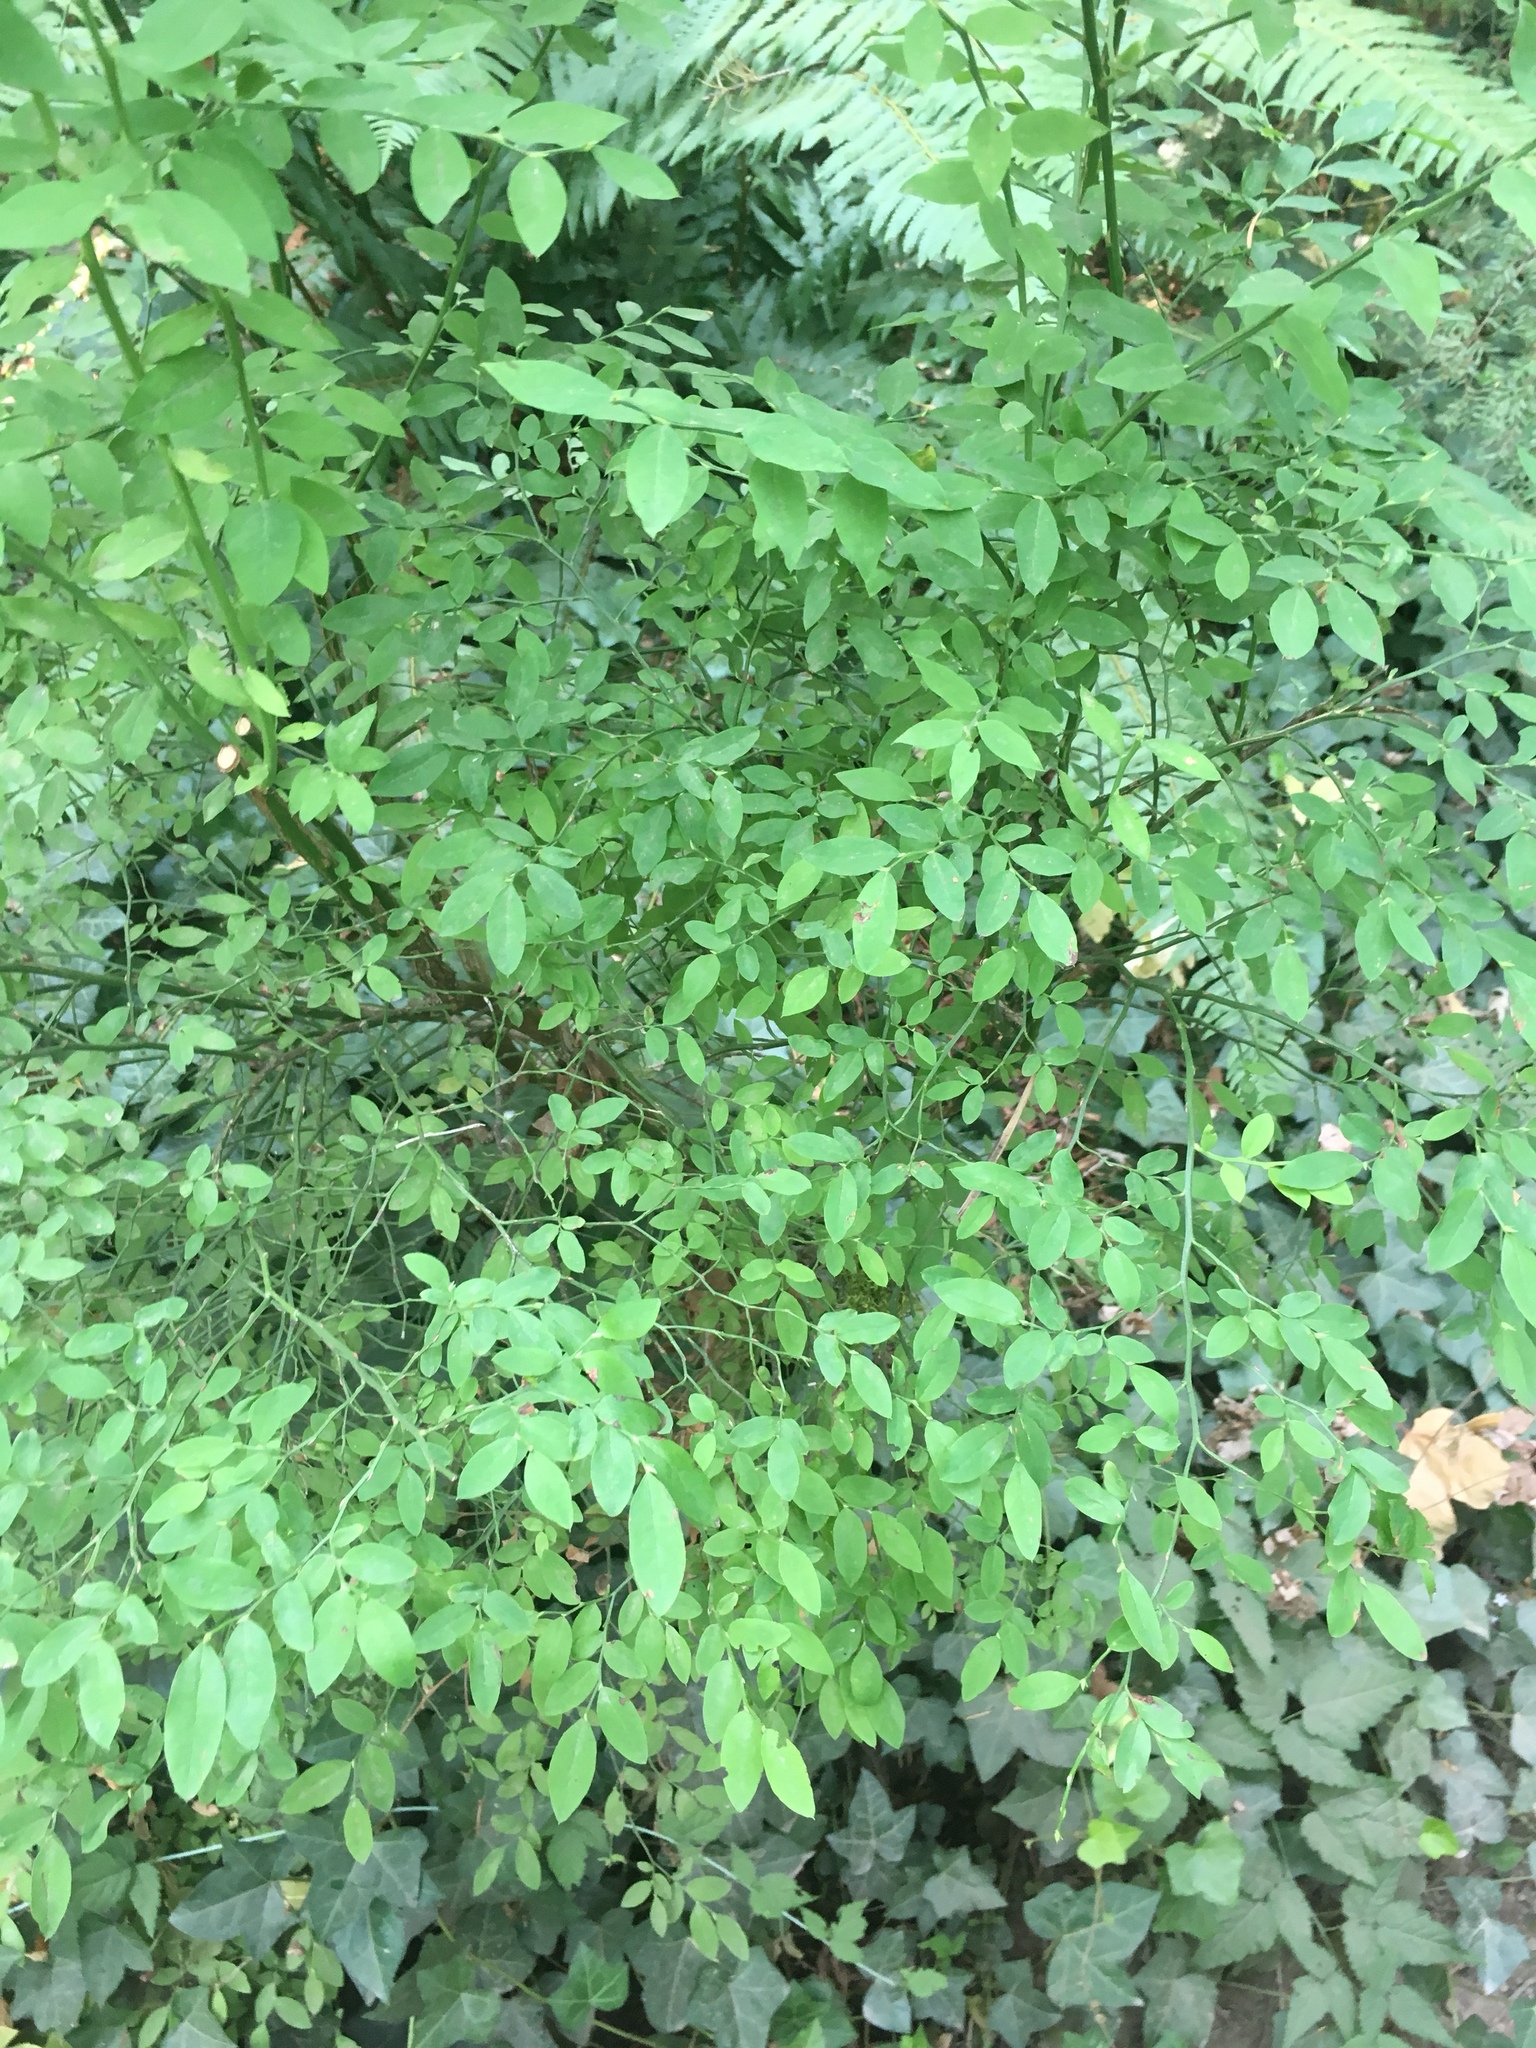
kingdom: Plantae
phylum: Tracheophyta
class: Magnoliopsida
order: Ericales
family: Ericaceae
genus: Vaccinium
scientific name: Vaccinium parvifolium
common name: Red-huckleberry
